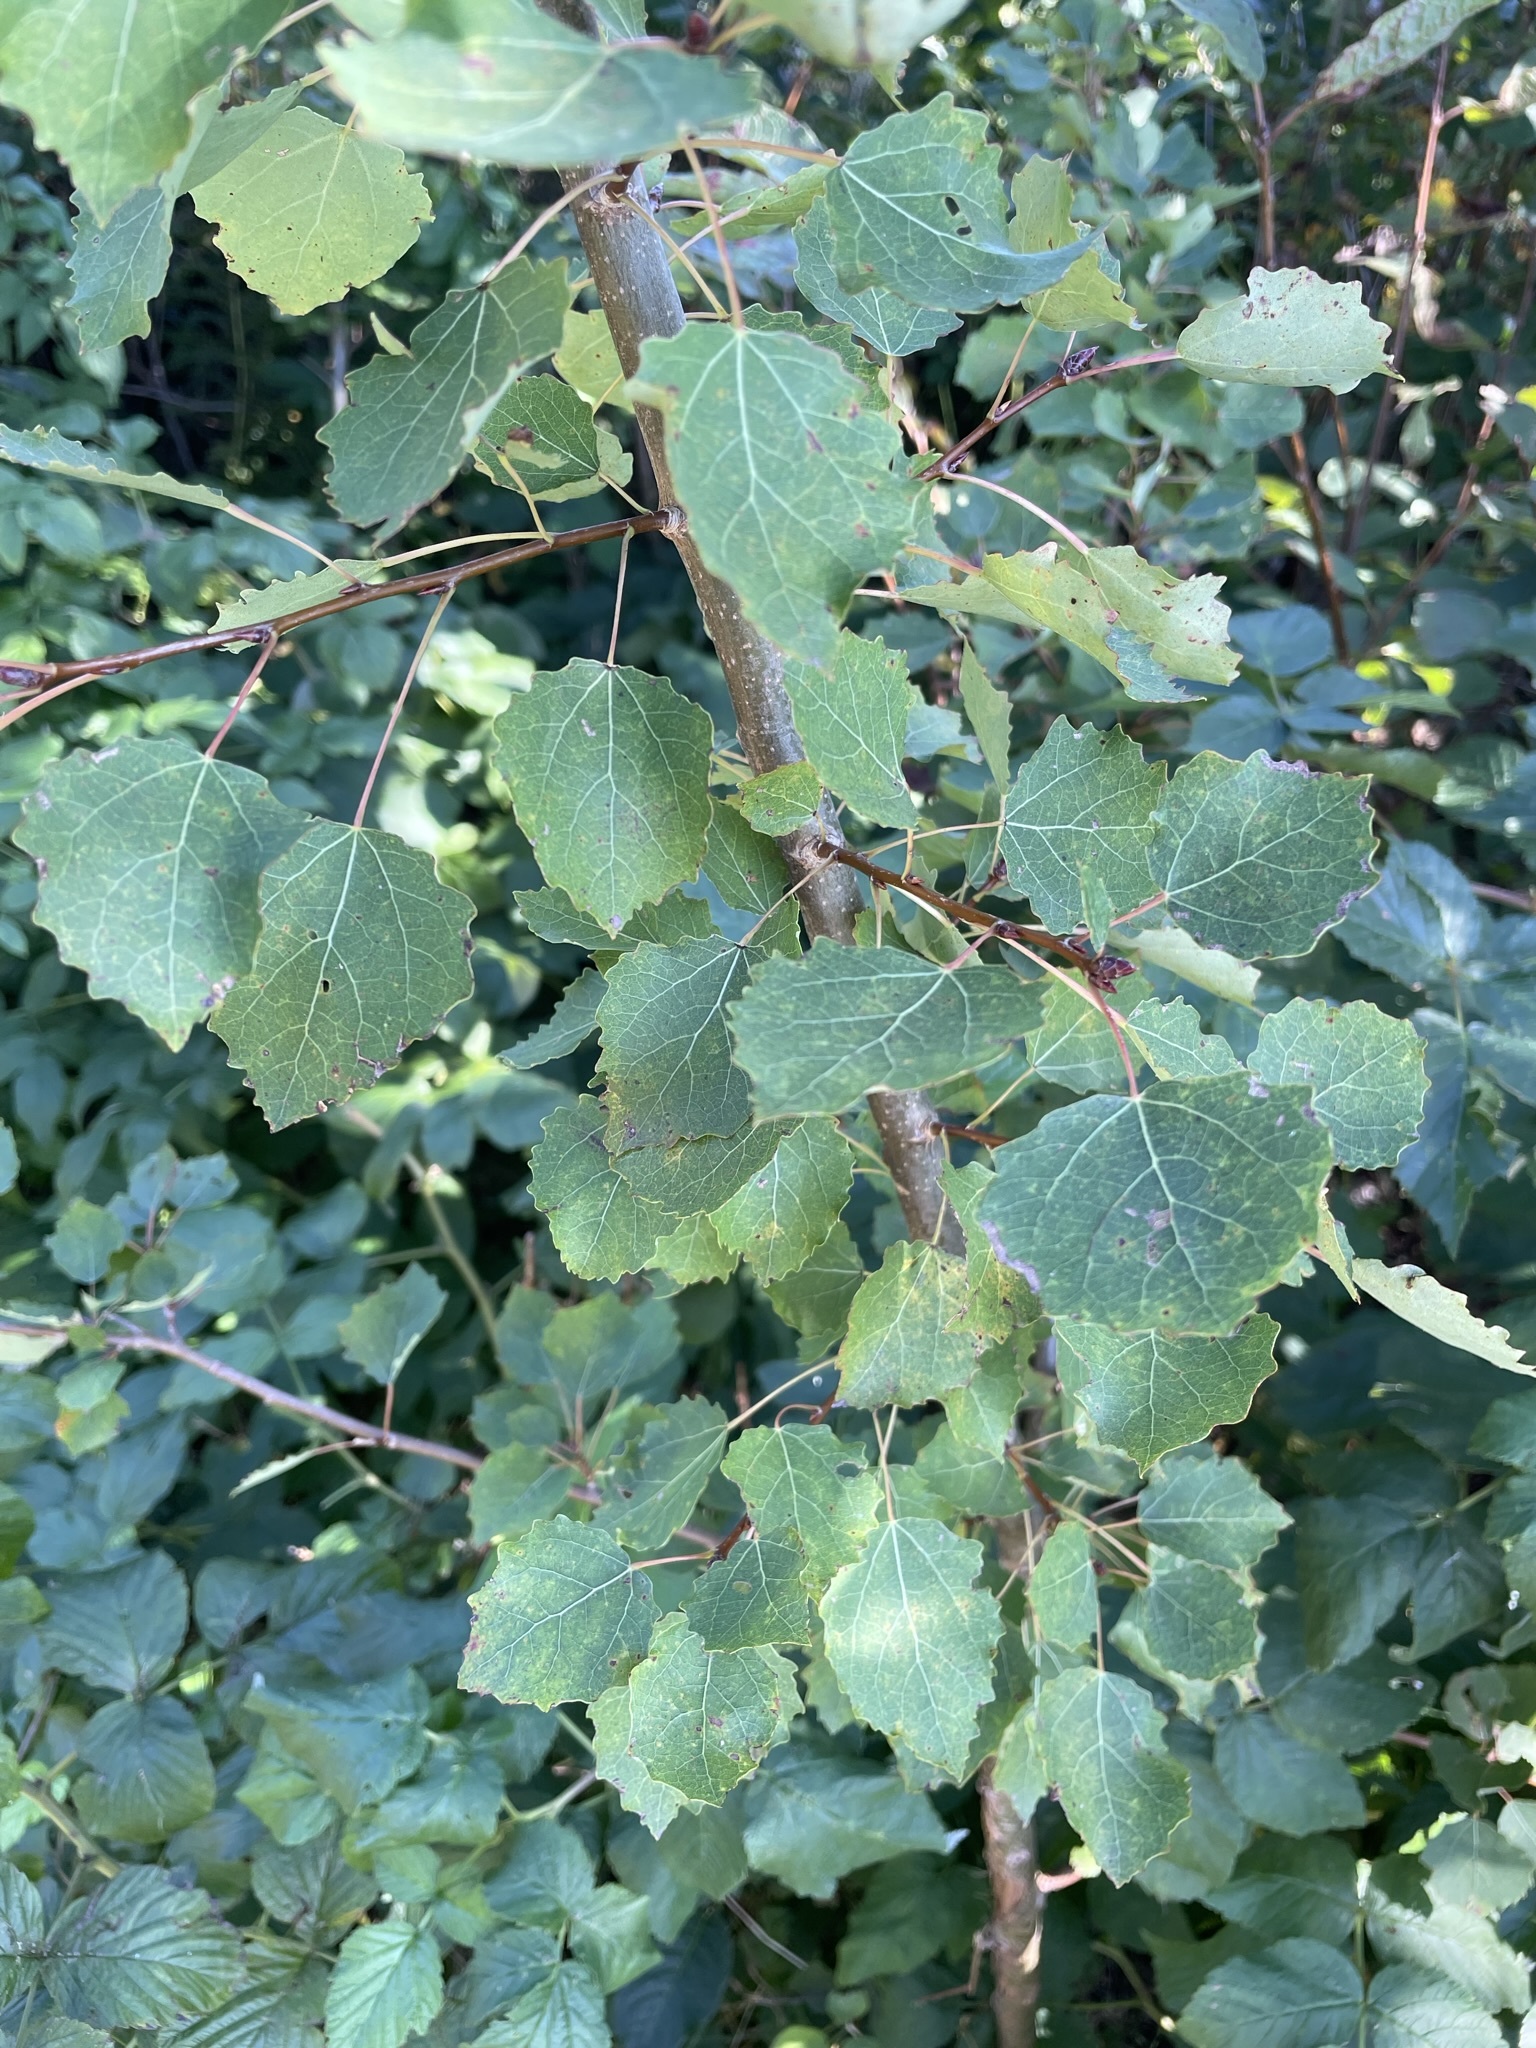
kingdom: Plantae
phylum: Tracheophyta
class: Magnoliopsida
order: Malpighiales
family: Salicaceae
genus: Populus
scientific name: Populus tremula
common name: European aspen
